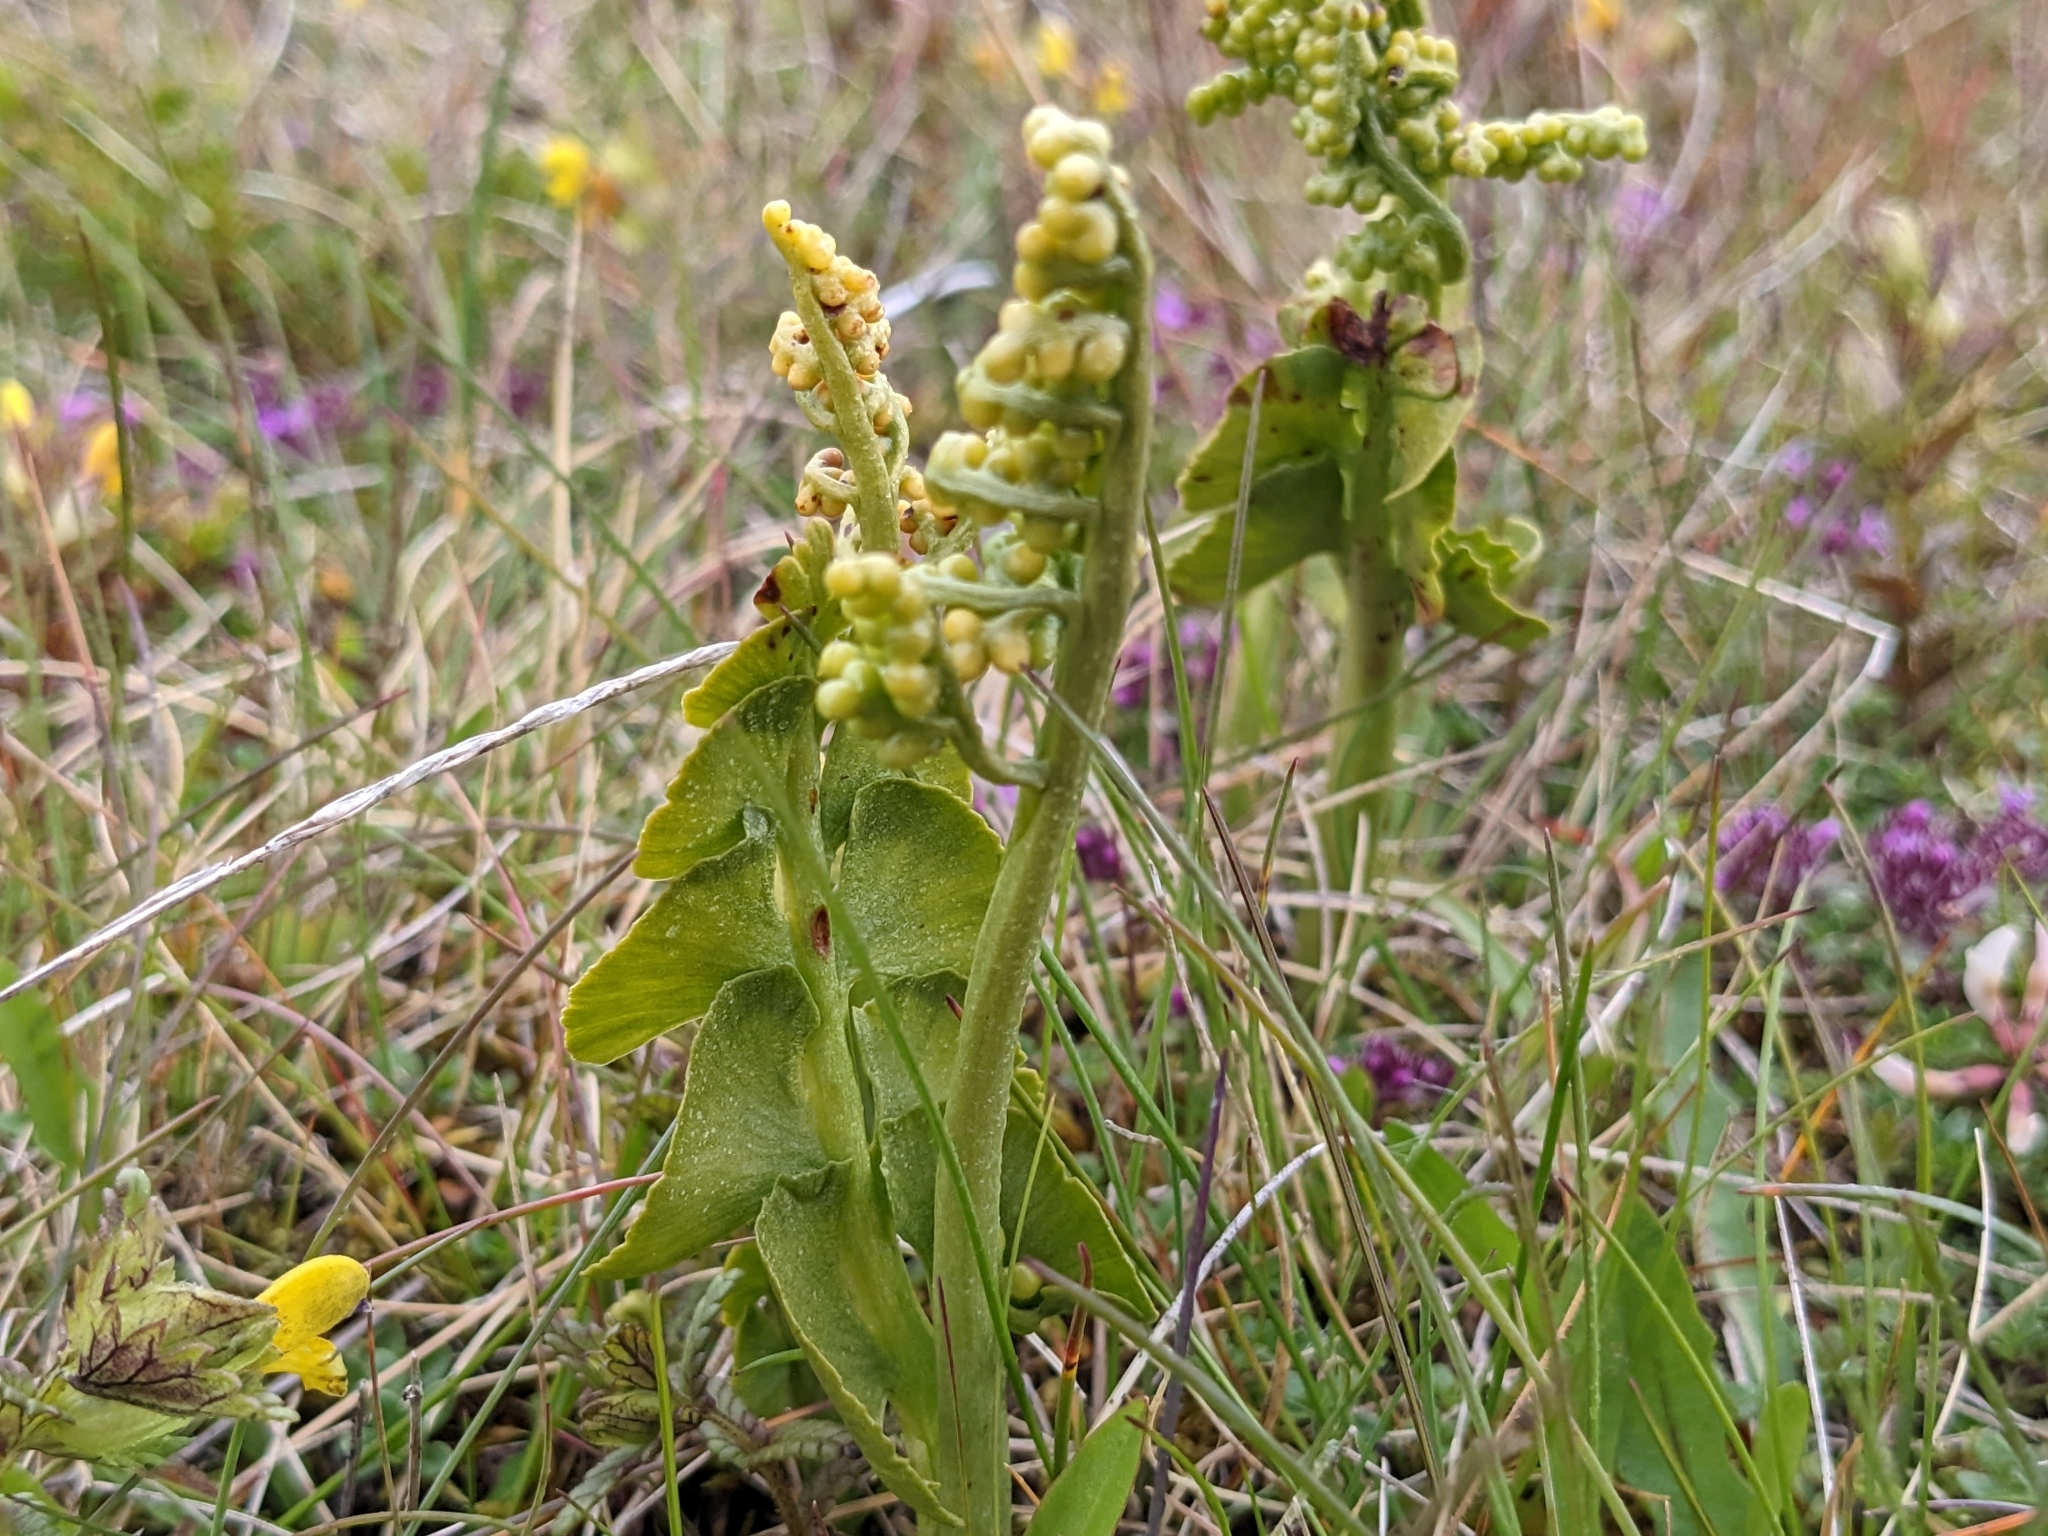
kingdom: Plantae
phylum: Tracheophyta
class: Polypodiopsida
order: Ophioglossales
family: Ophioglossaceae
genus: Botrychium
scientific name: Botrychium lunaria
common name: Moonwort
